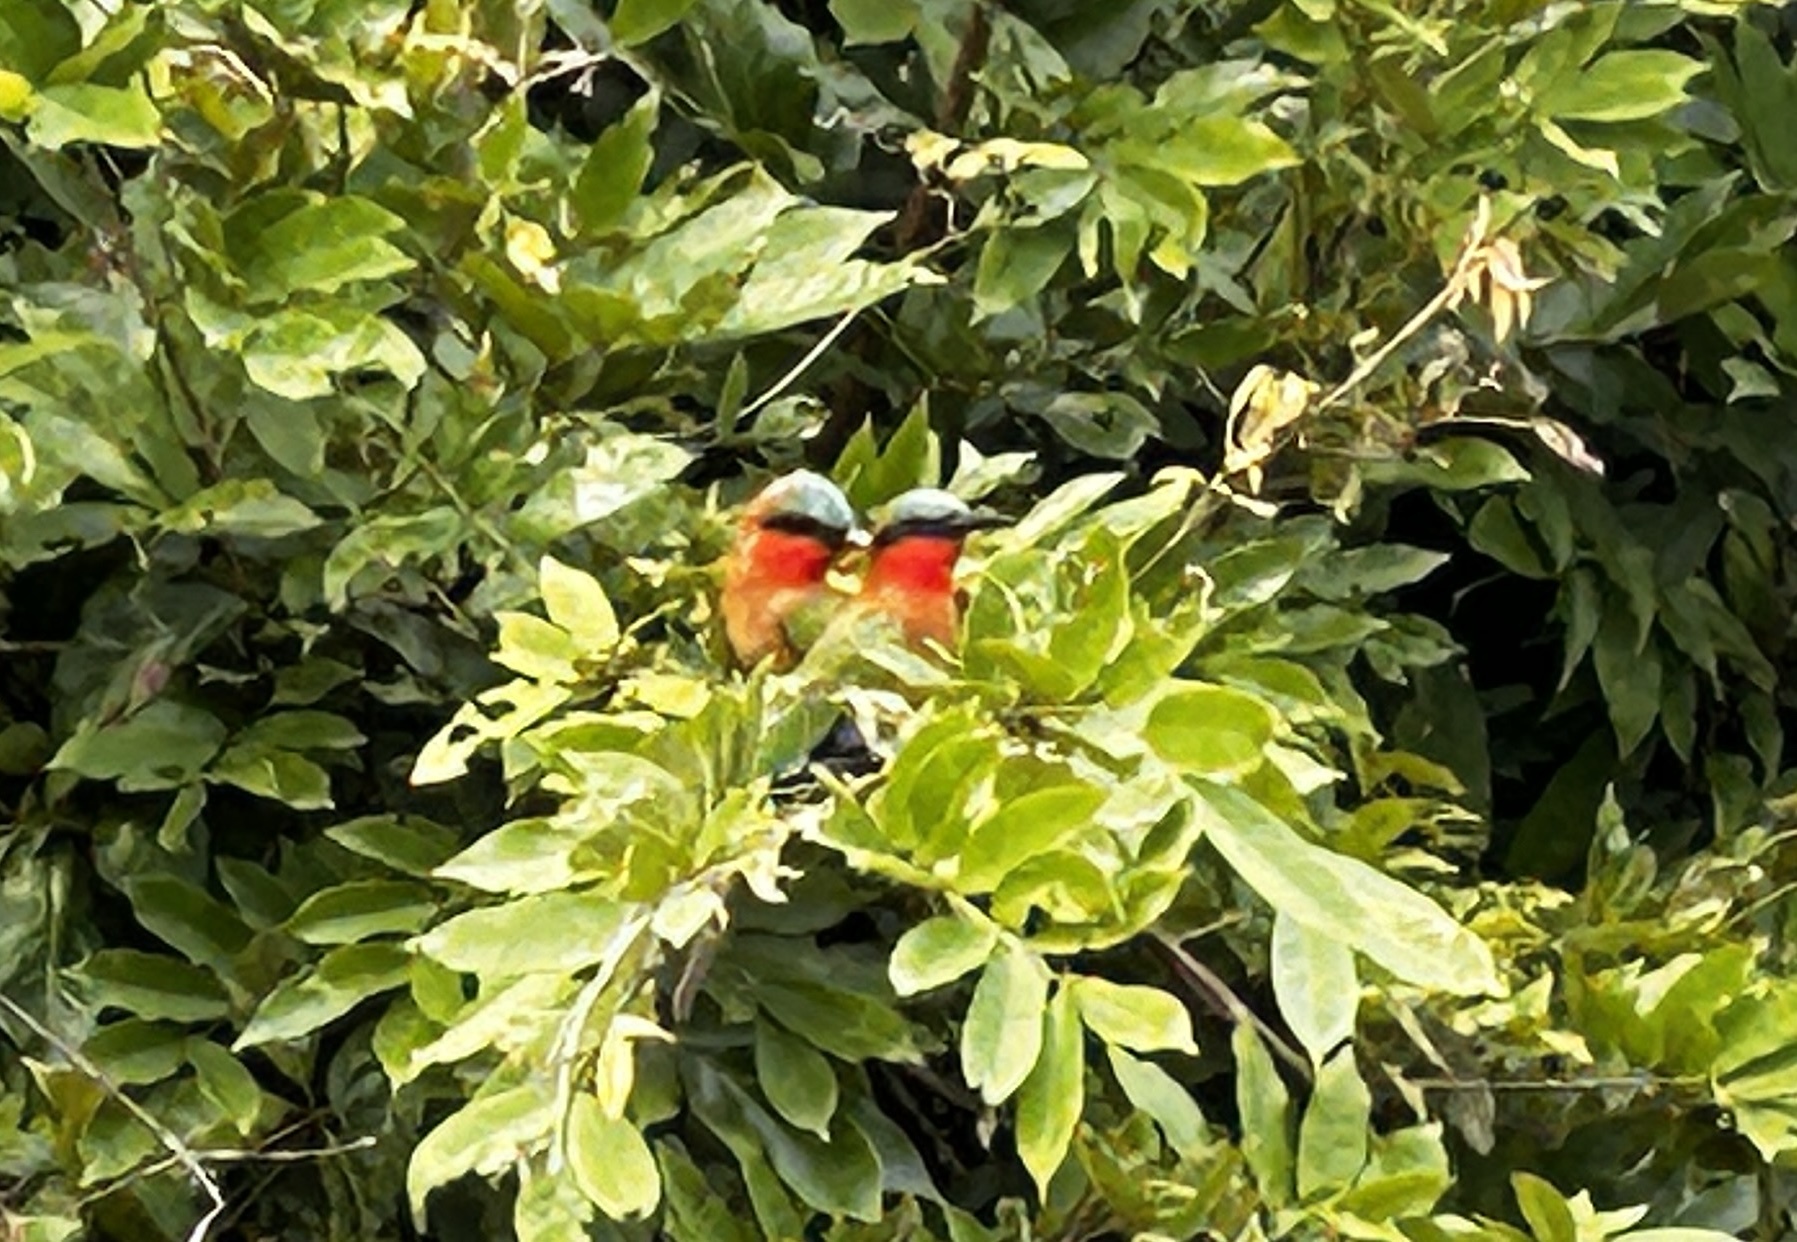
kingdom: Animalia
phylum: Chordata
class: Aves
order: Coraciiformes
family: Meropidae
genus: Merops
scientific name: Merops bulocki
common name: Red-throated bee-eater
